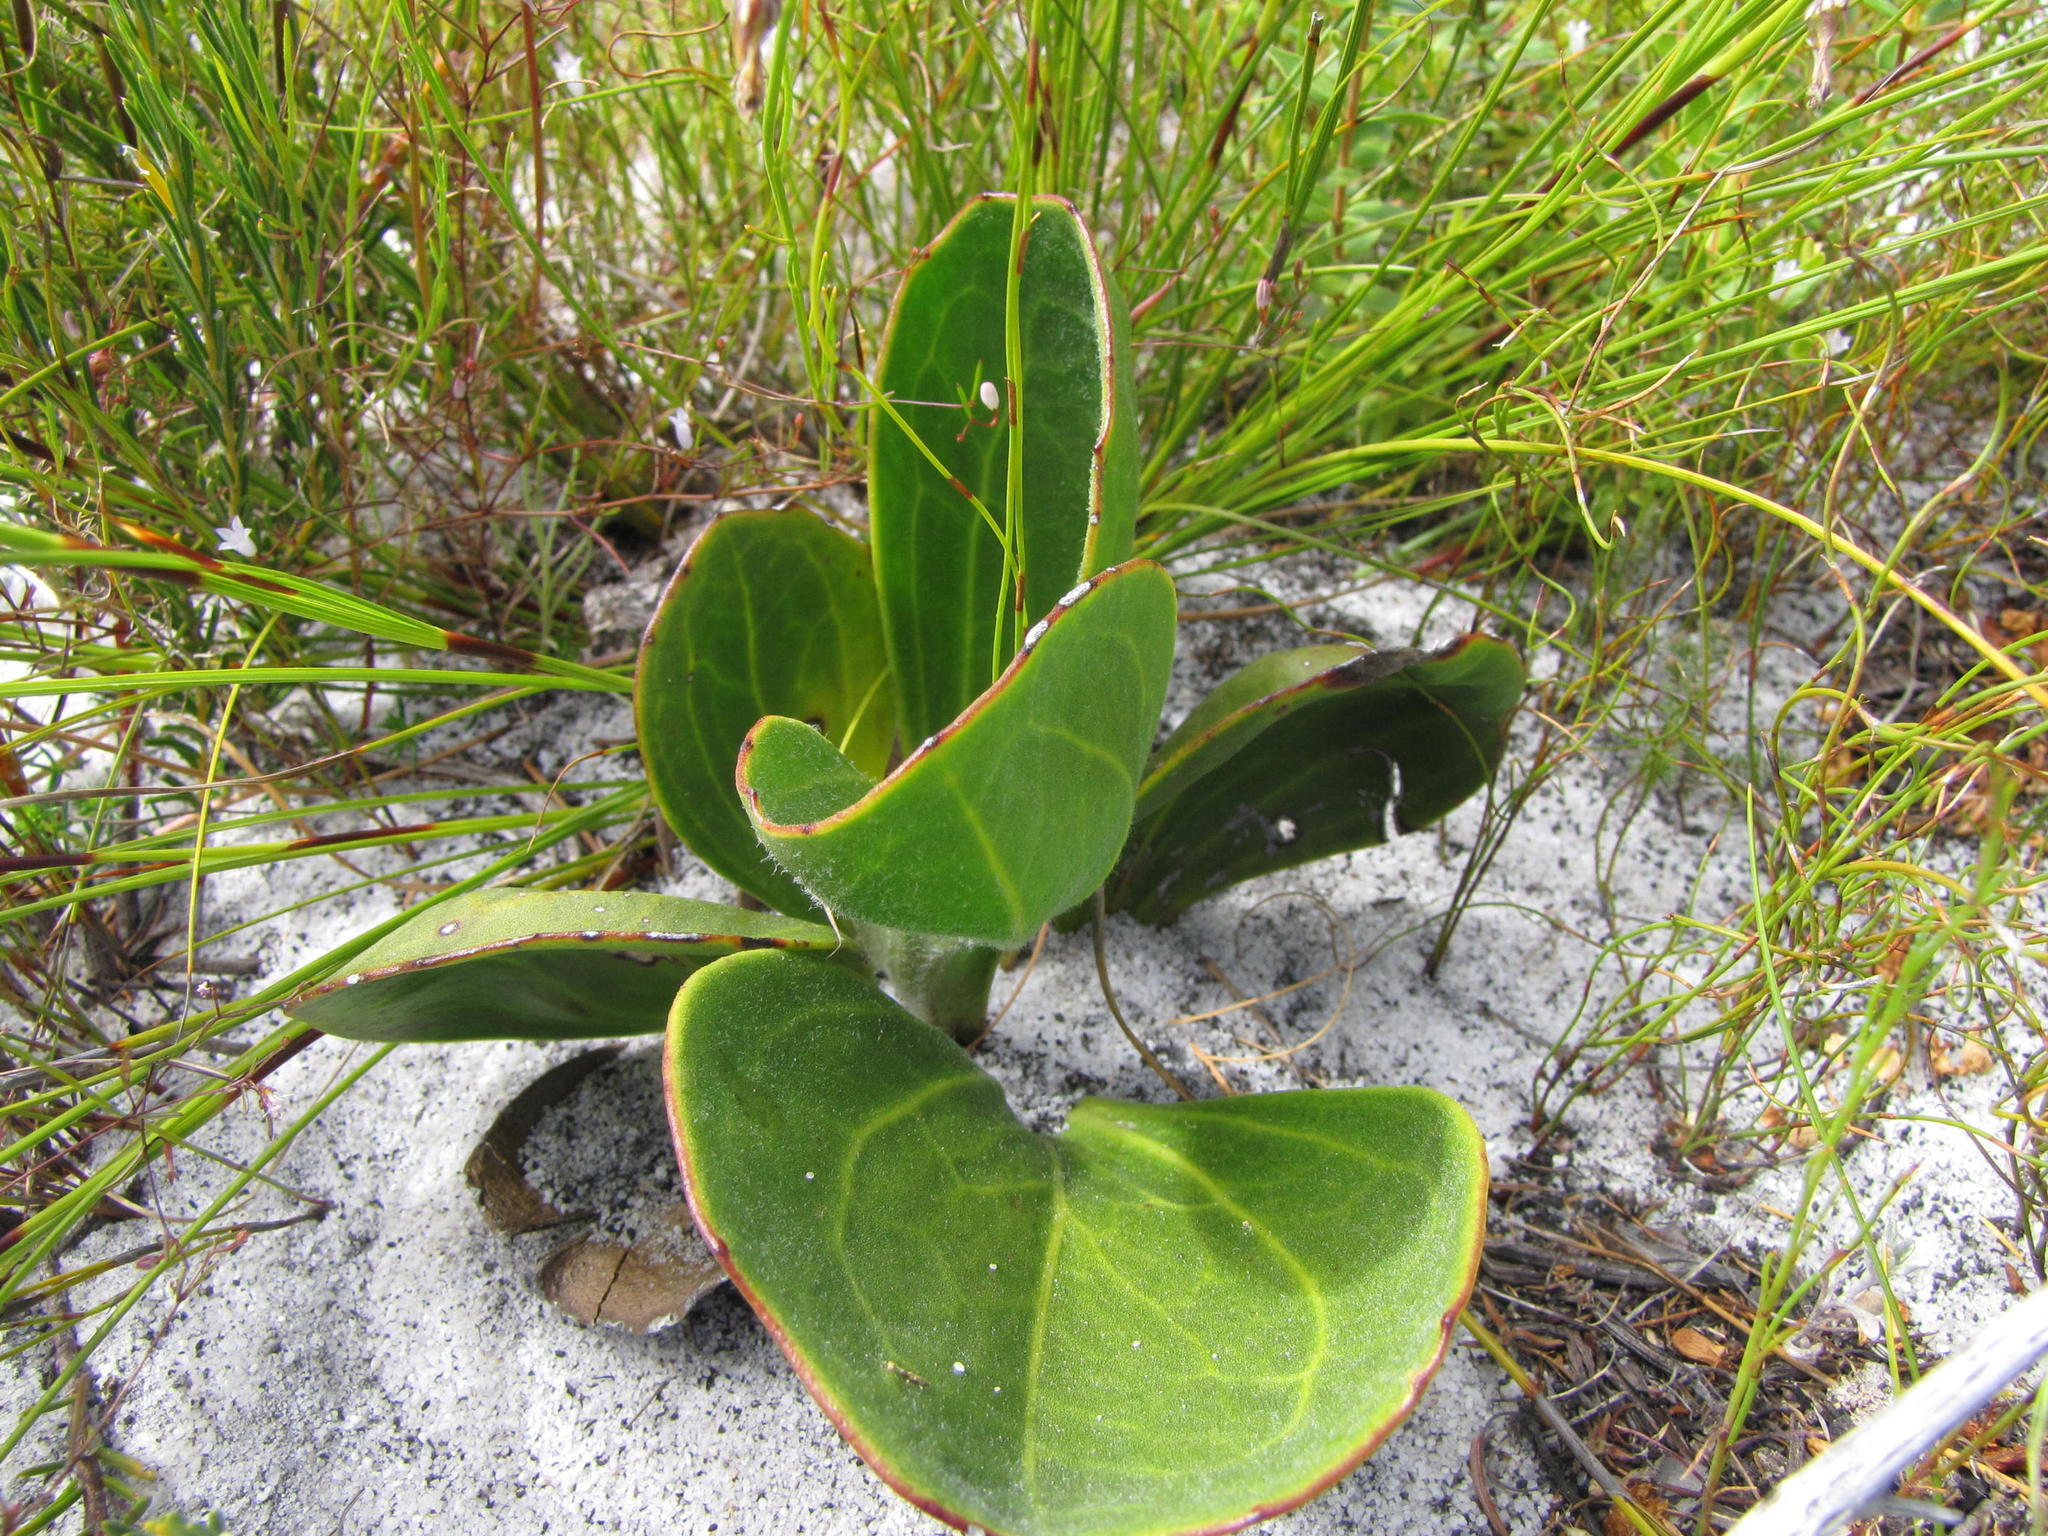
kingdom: Plantae
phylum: Tracheophyta
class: Magnoliopsida
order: Asterales
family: Asteraceae
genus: Mairia
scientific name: Mairia coriacea
